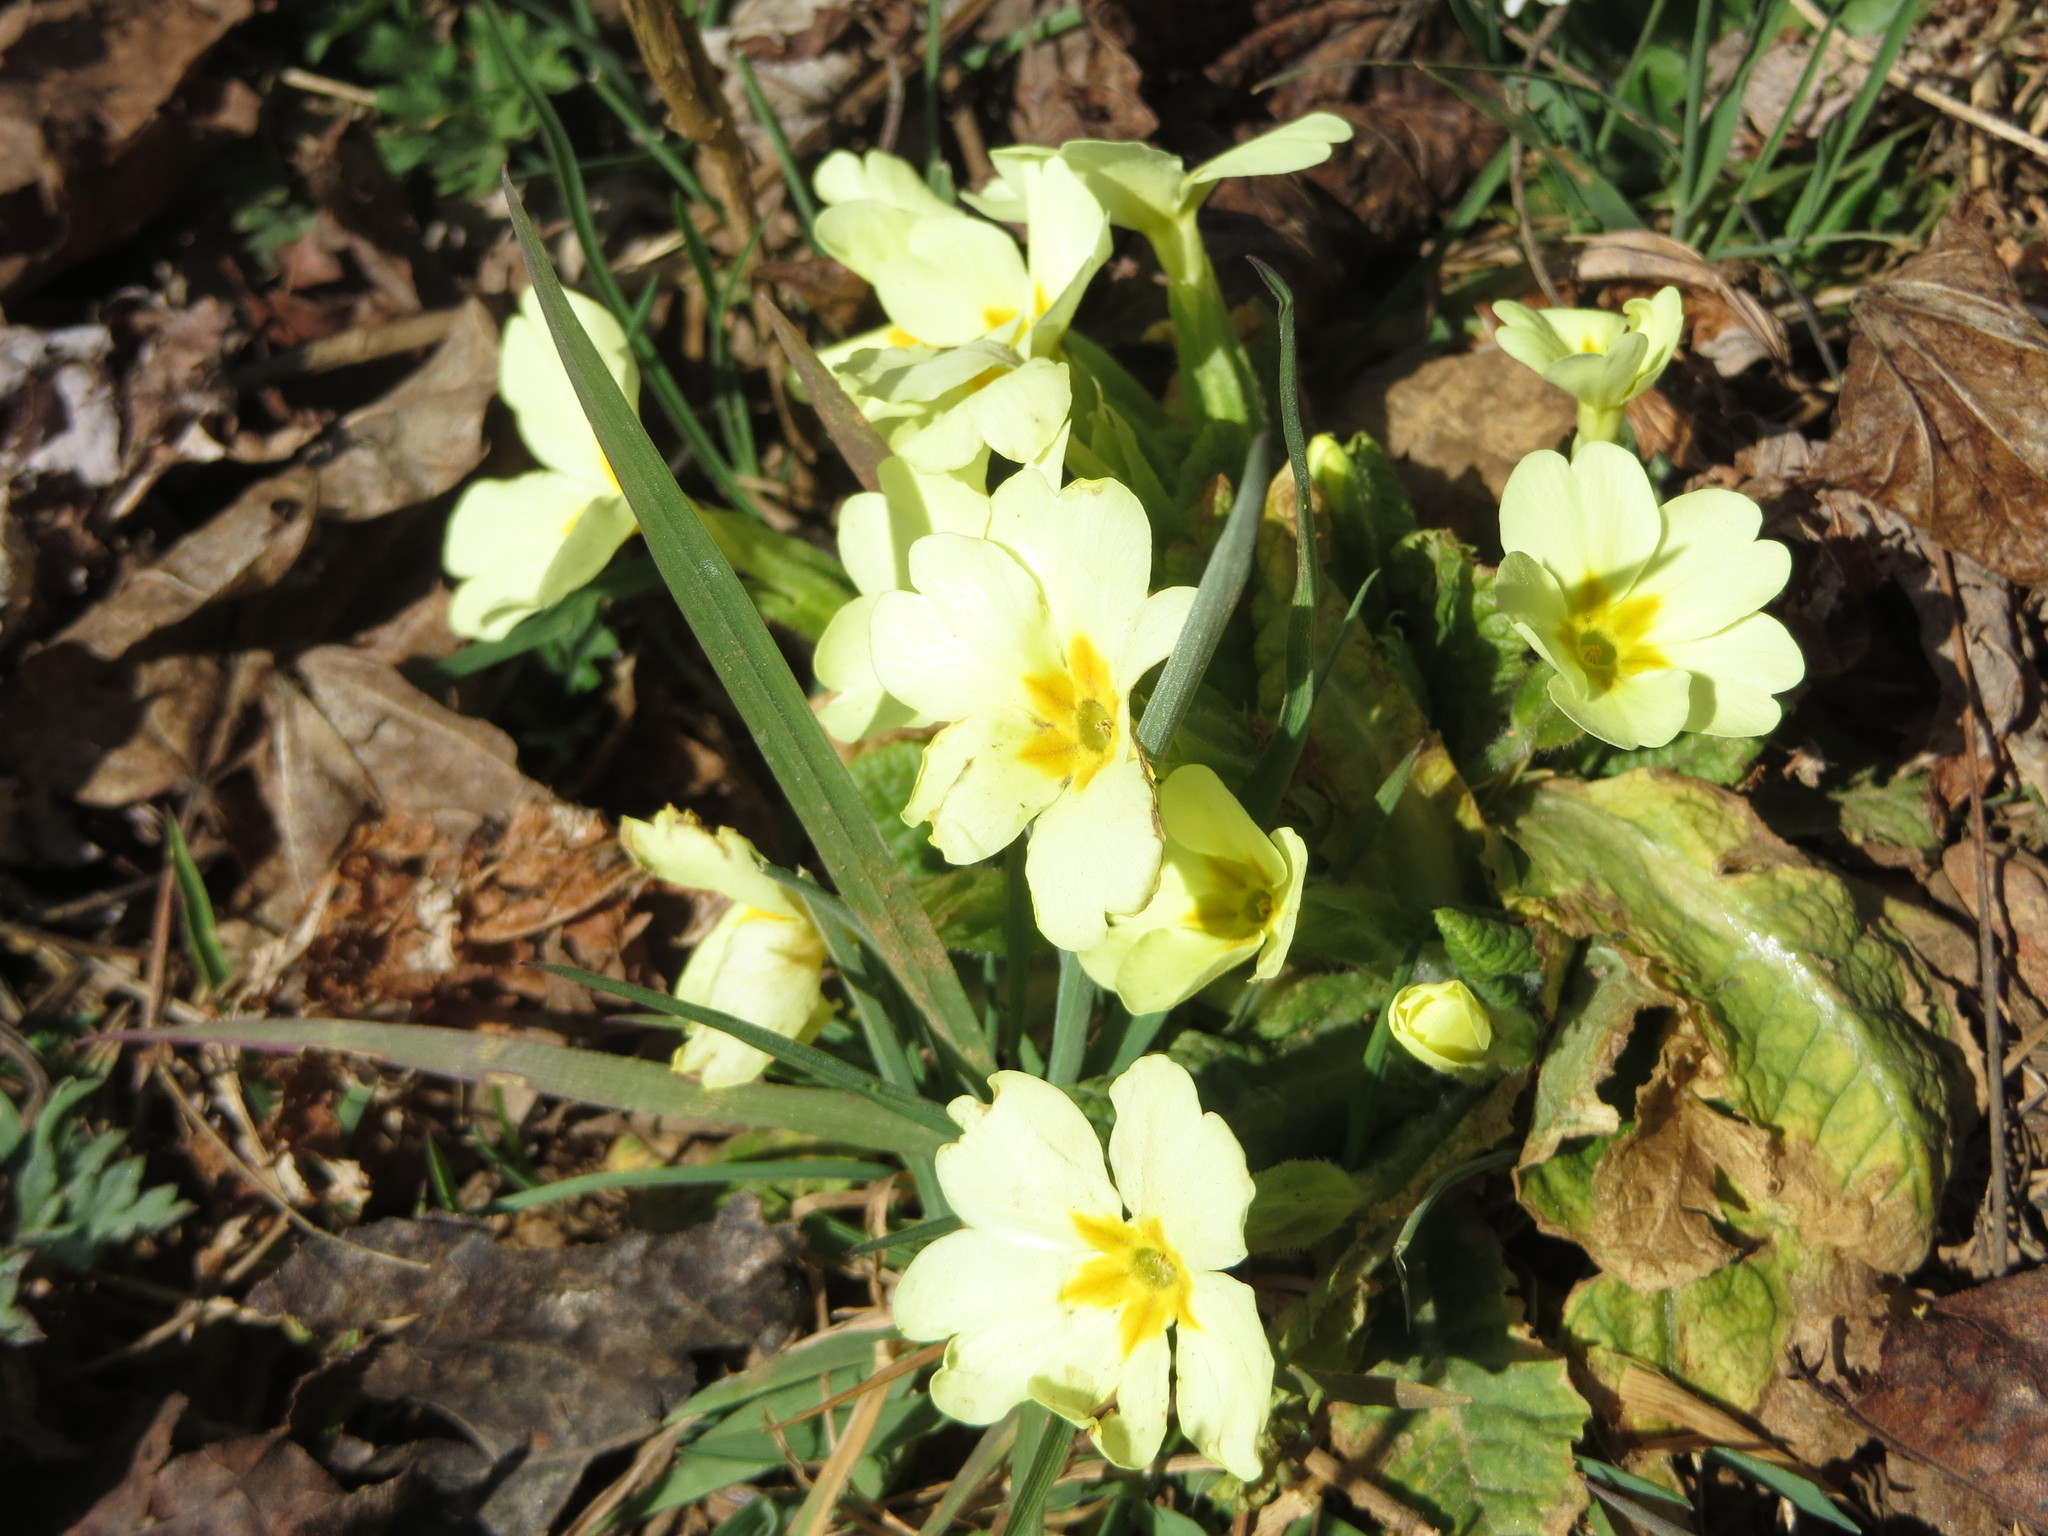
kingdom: Plantae
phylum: Tracheophyta
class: Magnoliopsida
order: Ericales
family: Primulaceae
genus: Primula
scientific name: Primula vulgaris
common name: Primrose
